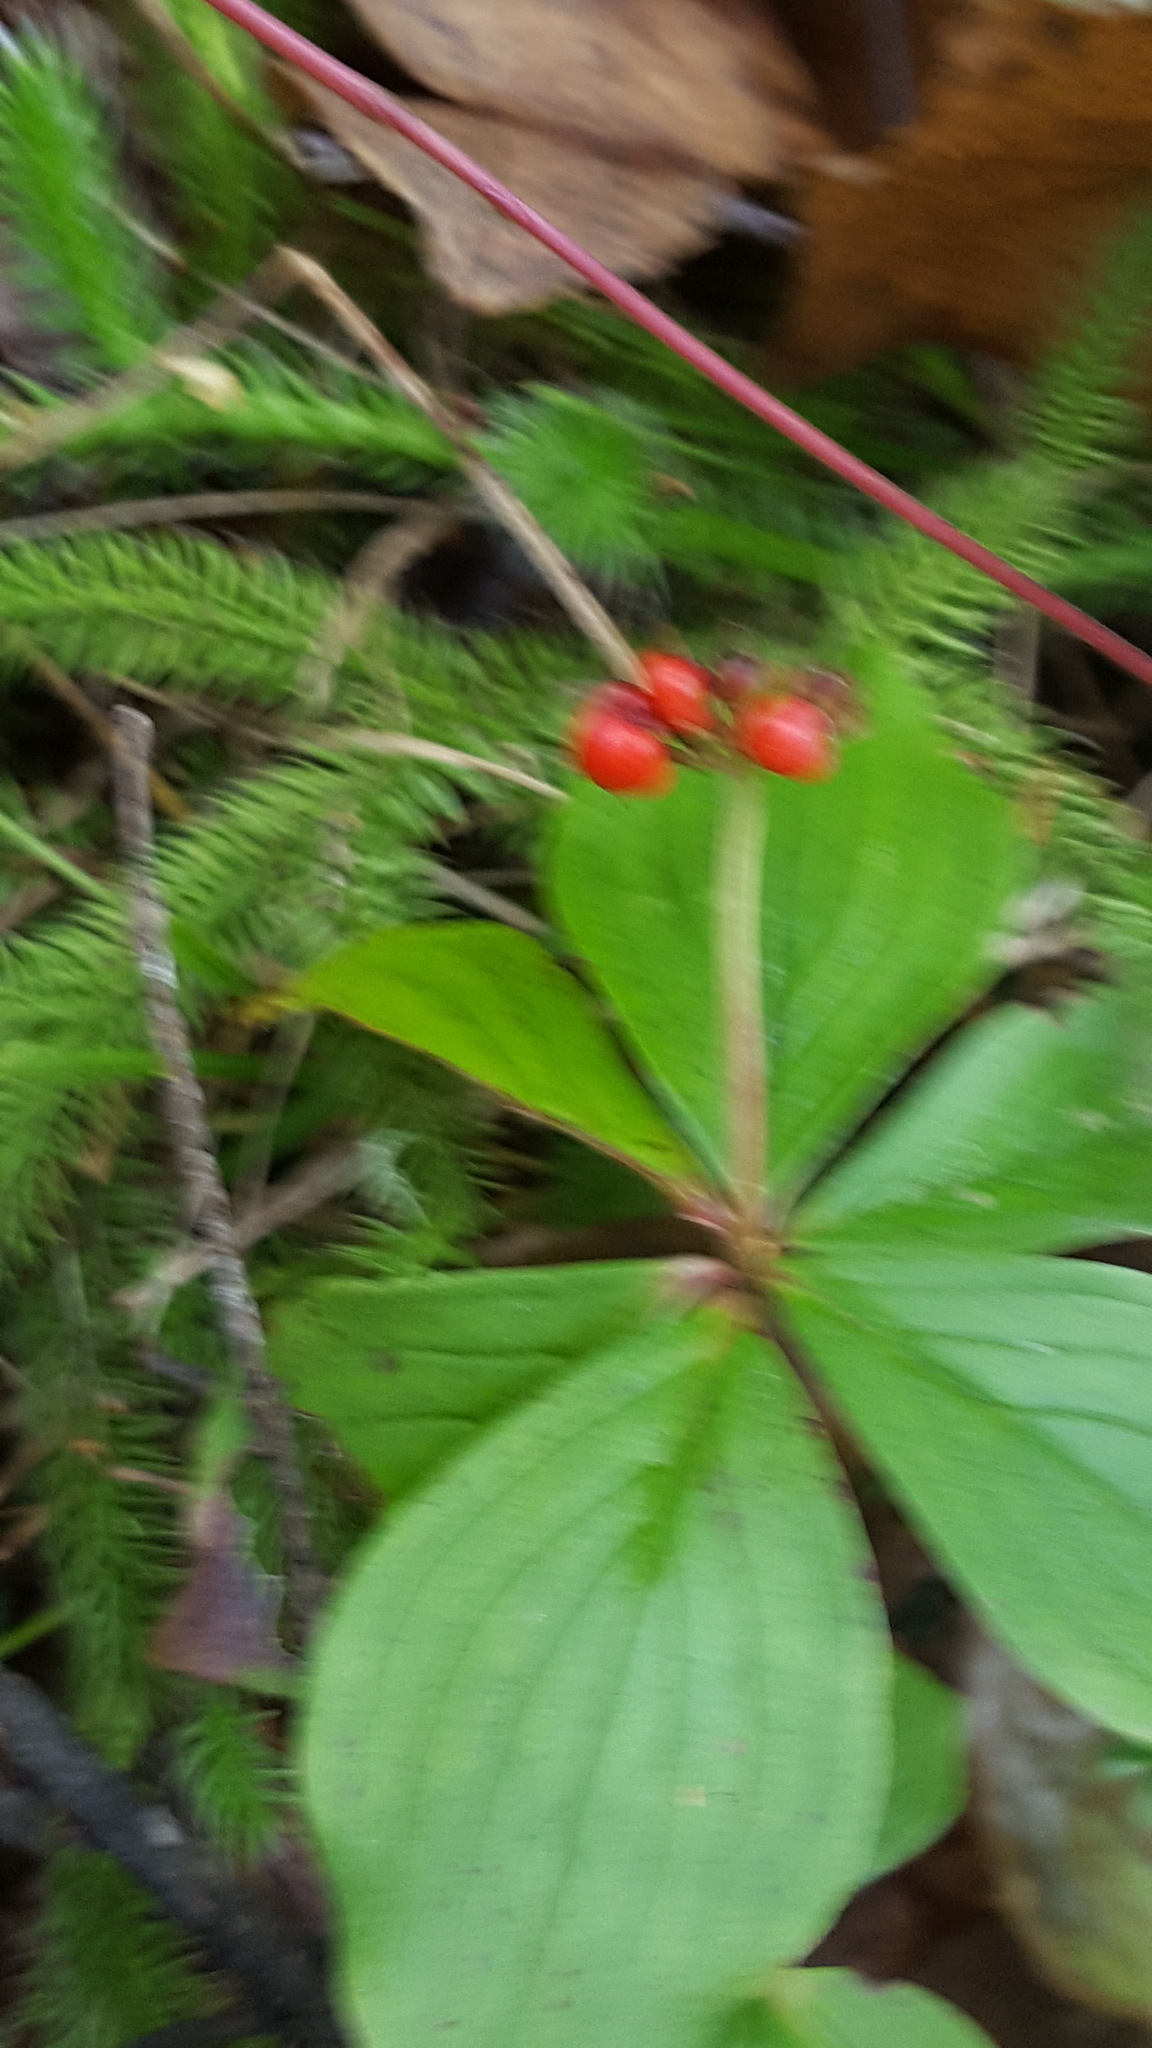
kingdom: Plantae
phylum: Tracheophyta
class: Magnoliopsida
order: Cornales
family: Cornaceae
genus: Cornus
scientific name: Cornus canadensis
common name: Creeping dogwood
